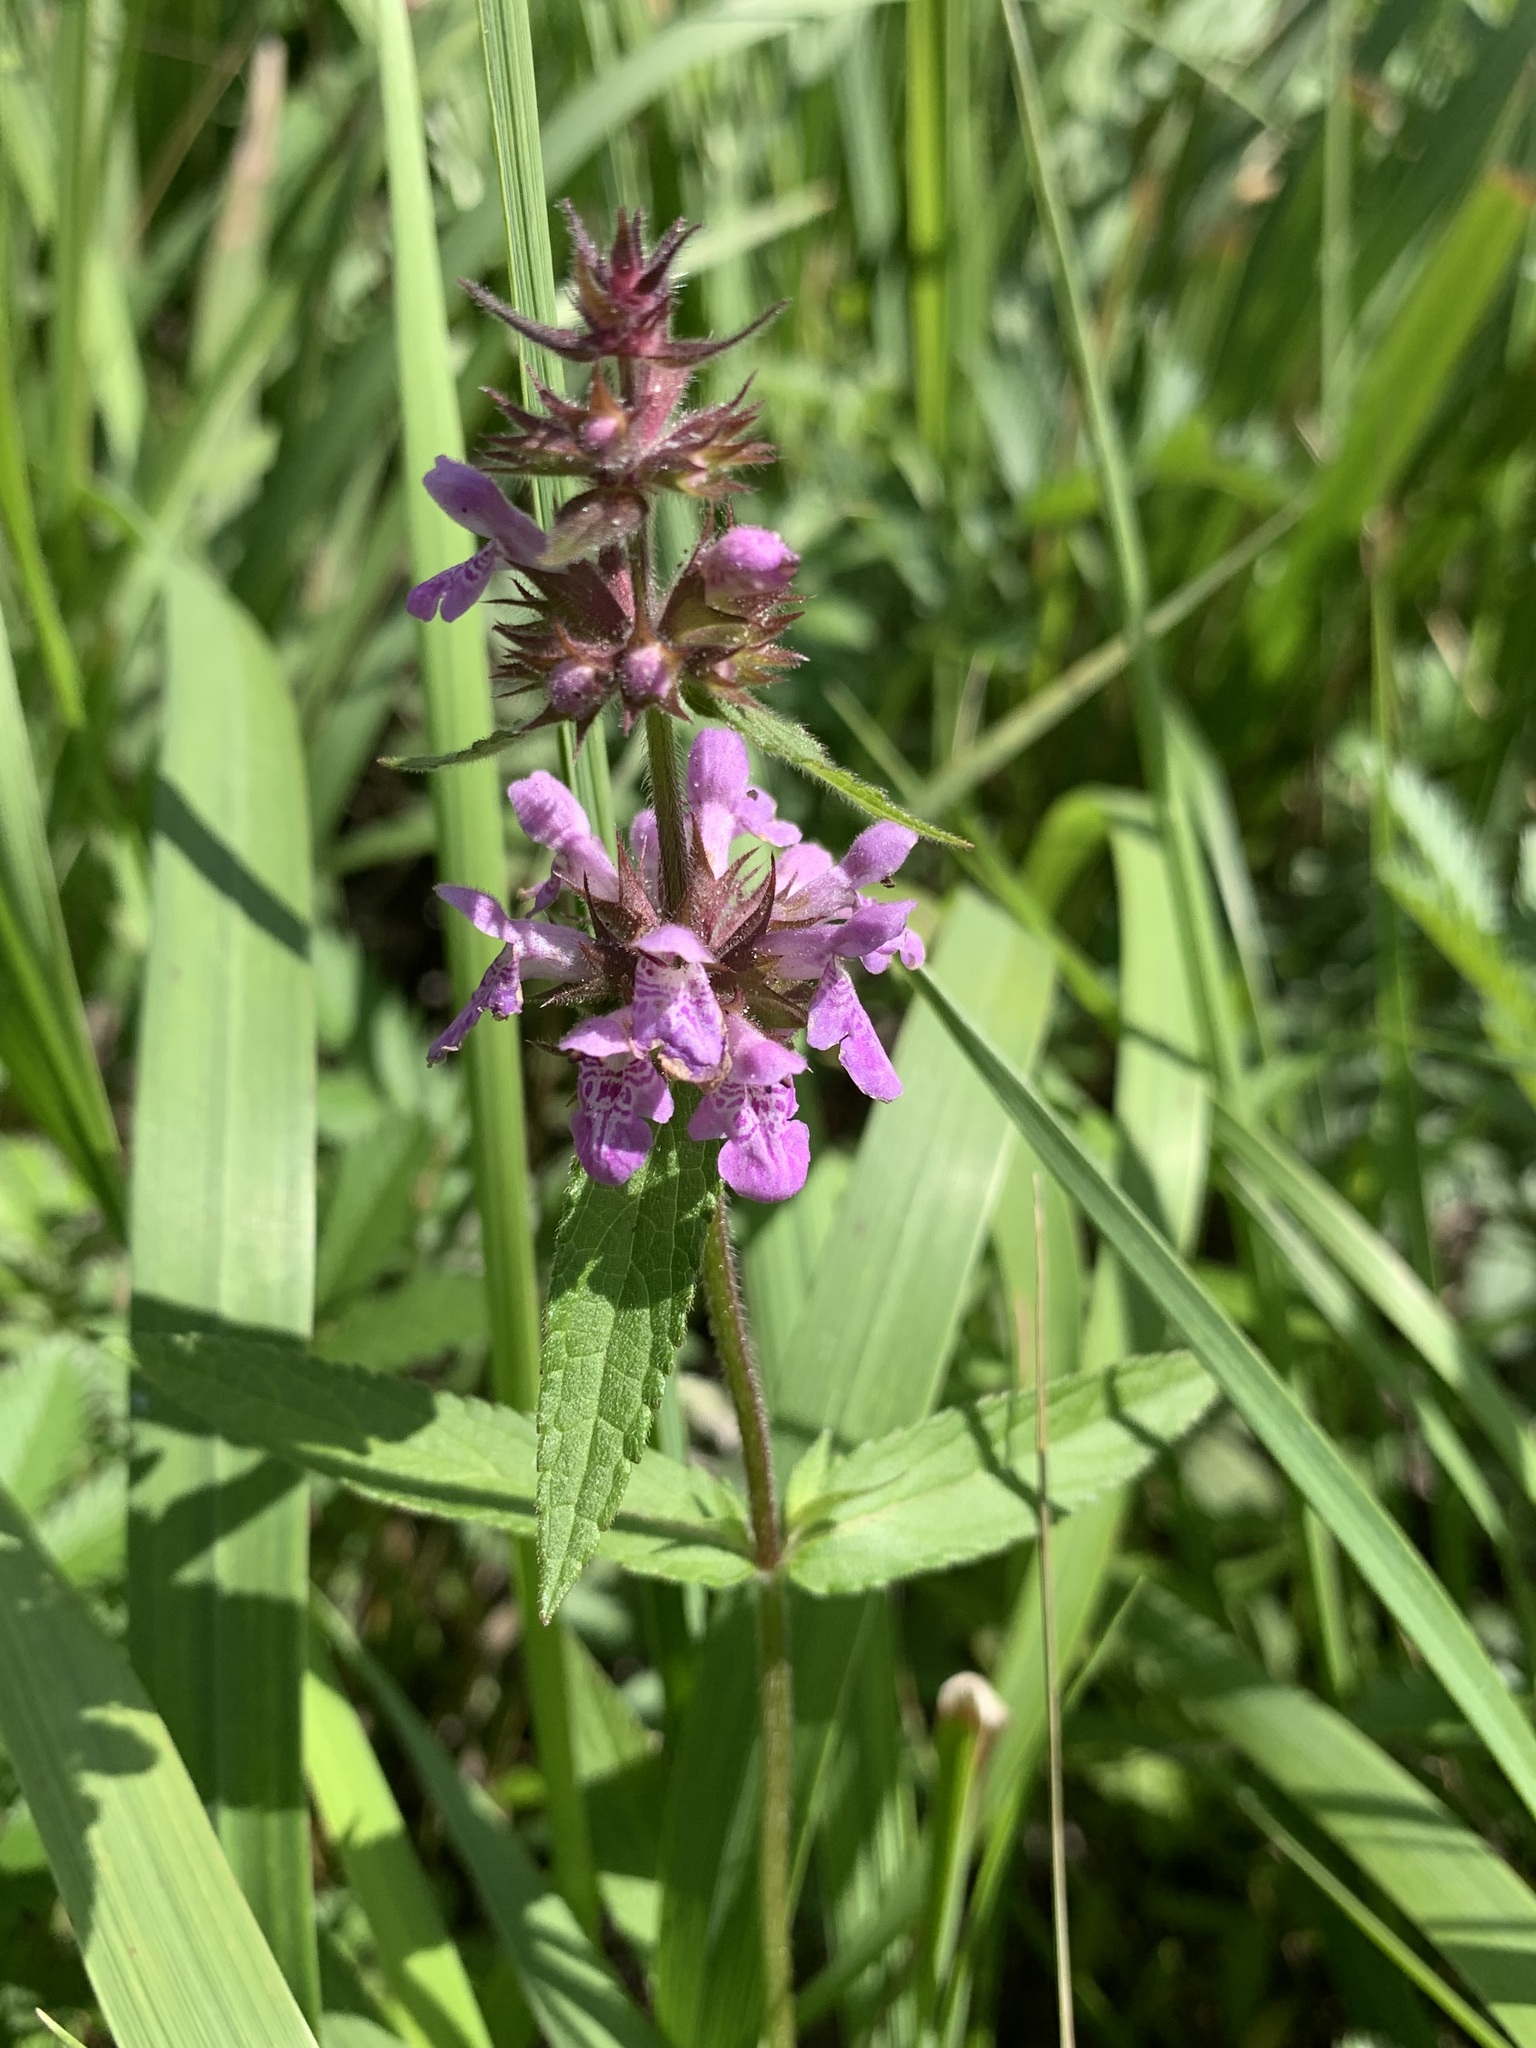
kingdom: Plantae
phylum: Tracheophyta
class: Magnoliopsida
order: Lamiales
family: Lamiaceae
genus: Stachys
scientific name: Stachys palustris
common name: Marsh woundwort
